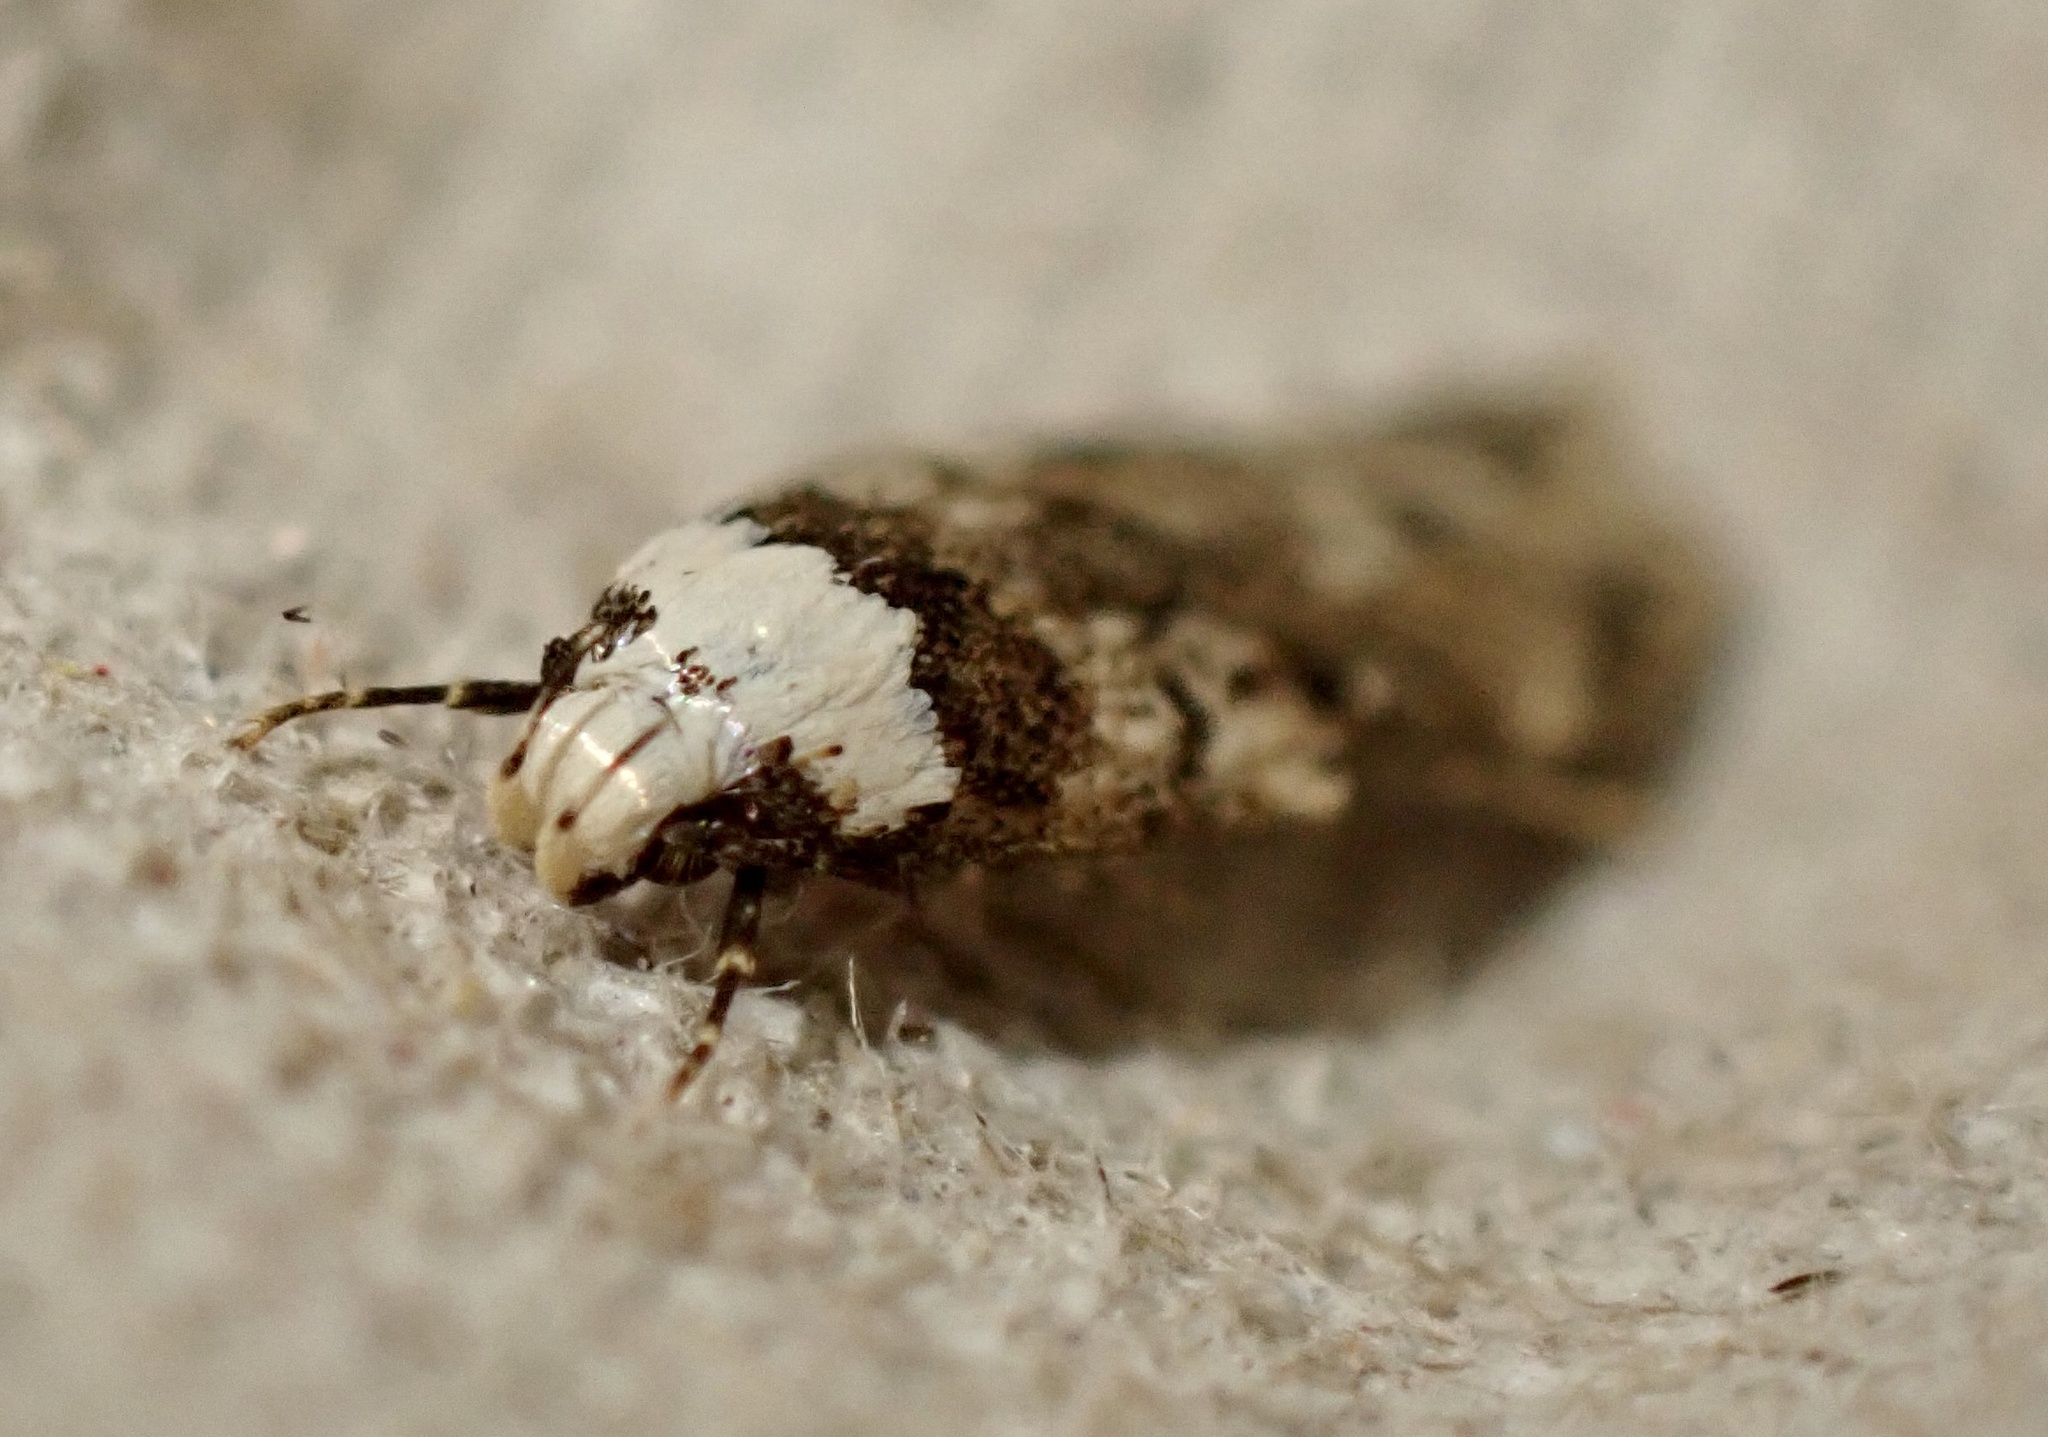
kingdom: Animalia
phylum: Arthropoda
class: Insecta
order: Lepidoptera
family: Oecophoridae
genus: Endrosis
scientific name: Endrosis sarcitrella
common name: White-shouldered house moth
